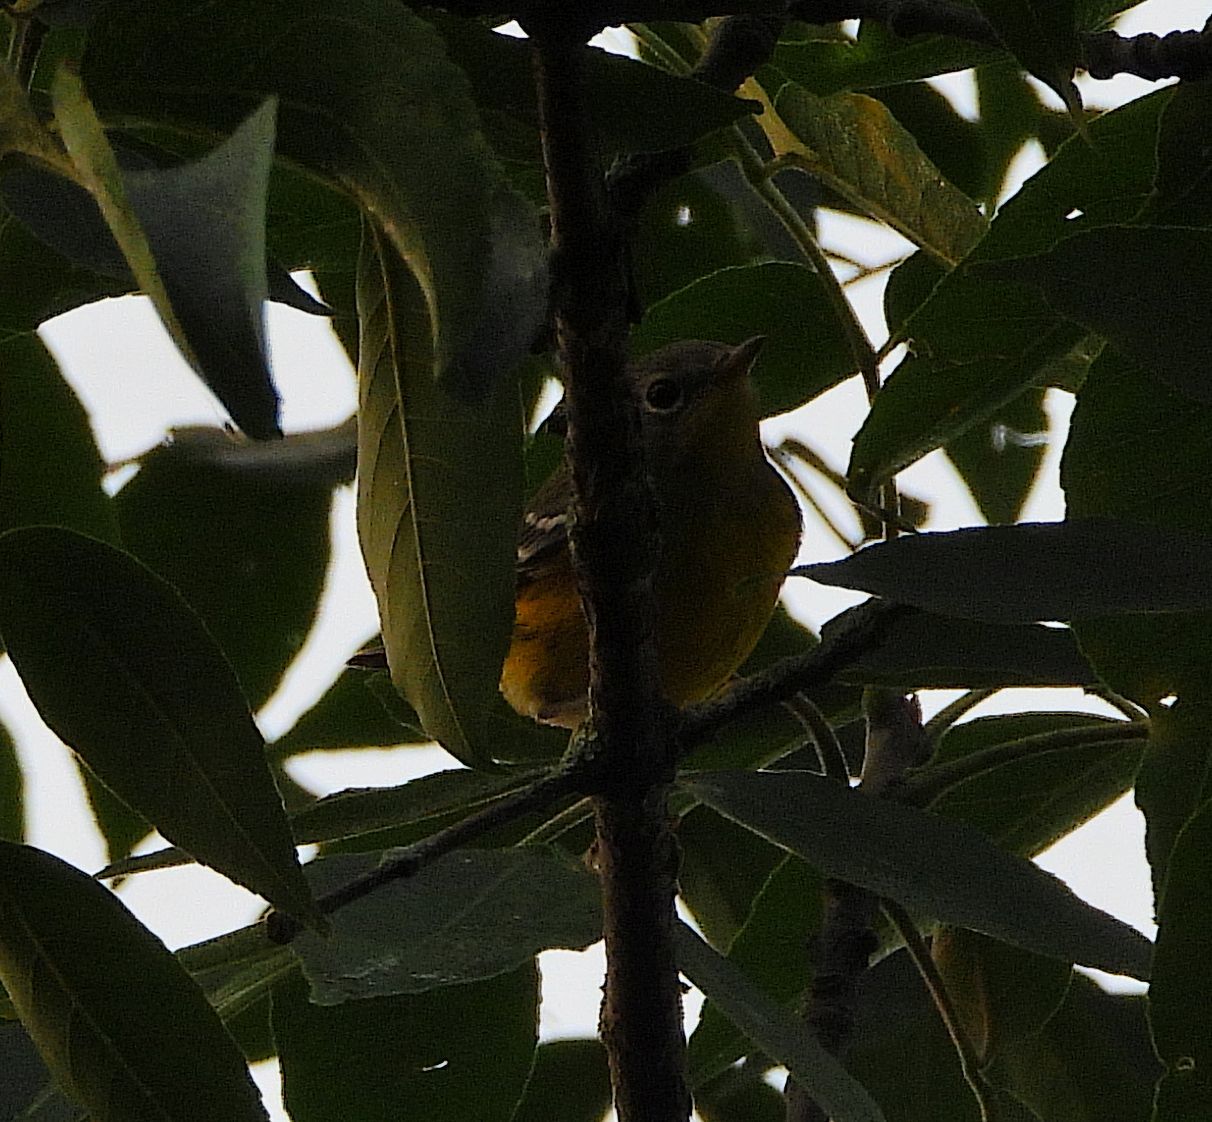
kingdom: Animalia
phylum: Chordata
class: Aves
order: Passeriformes
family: Parulidae
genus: Setophaga
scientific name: Setophaga magnolia
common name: Magnolia warbler
